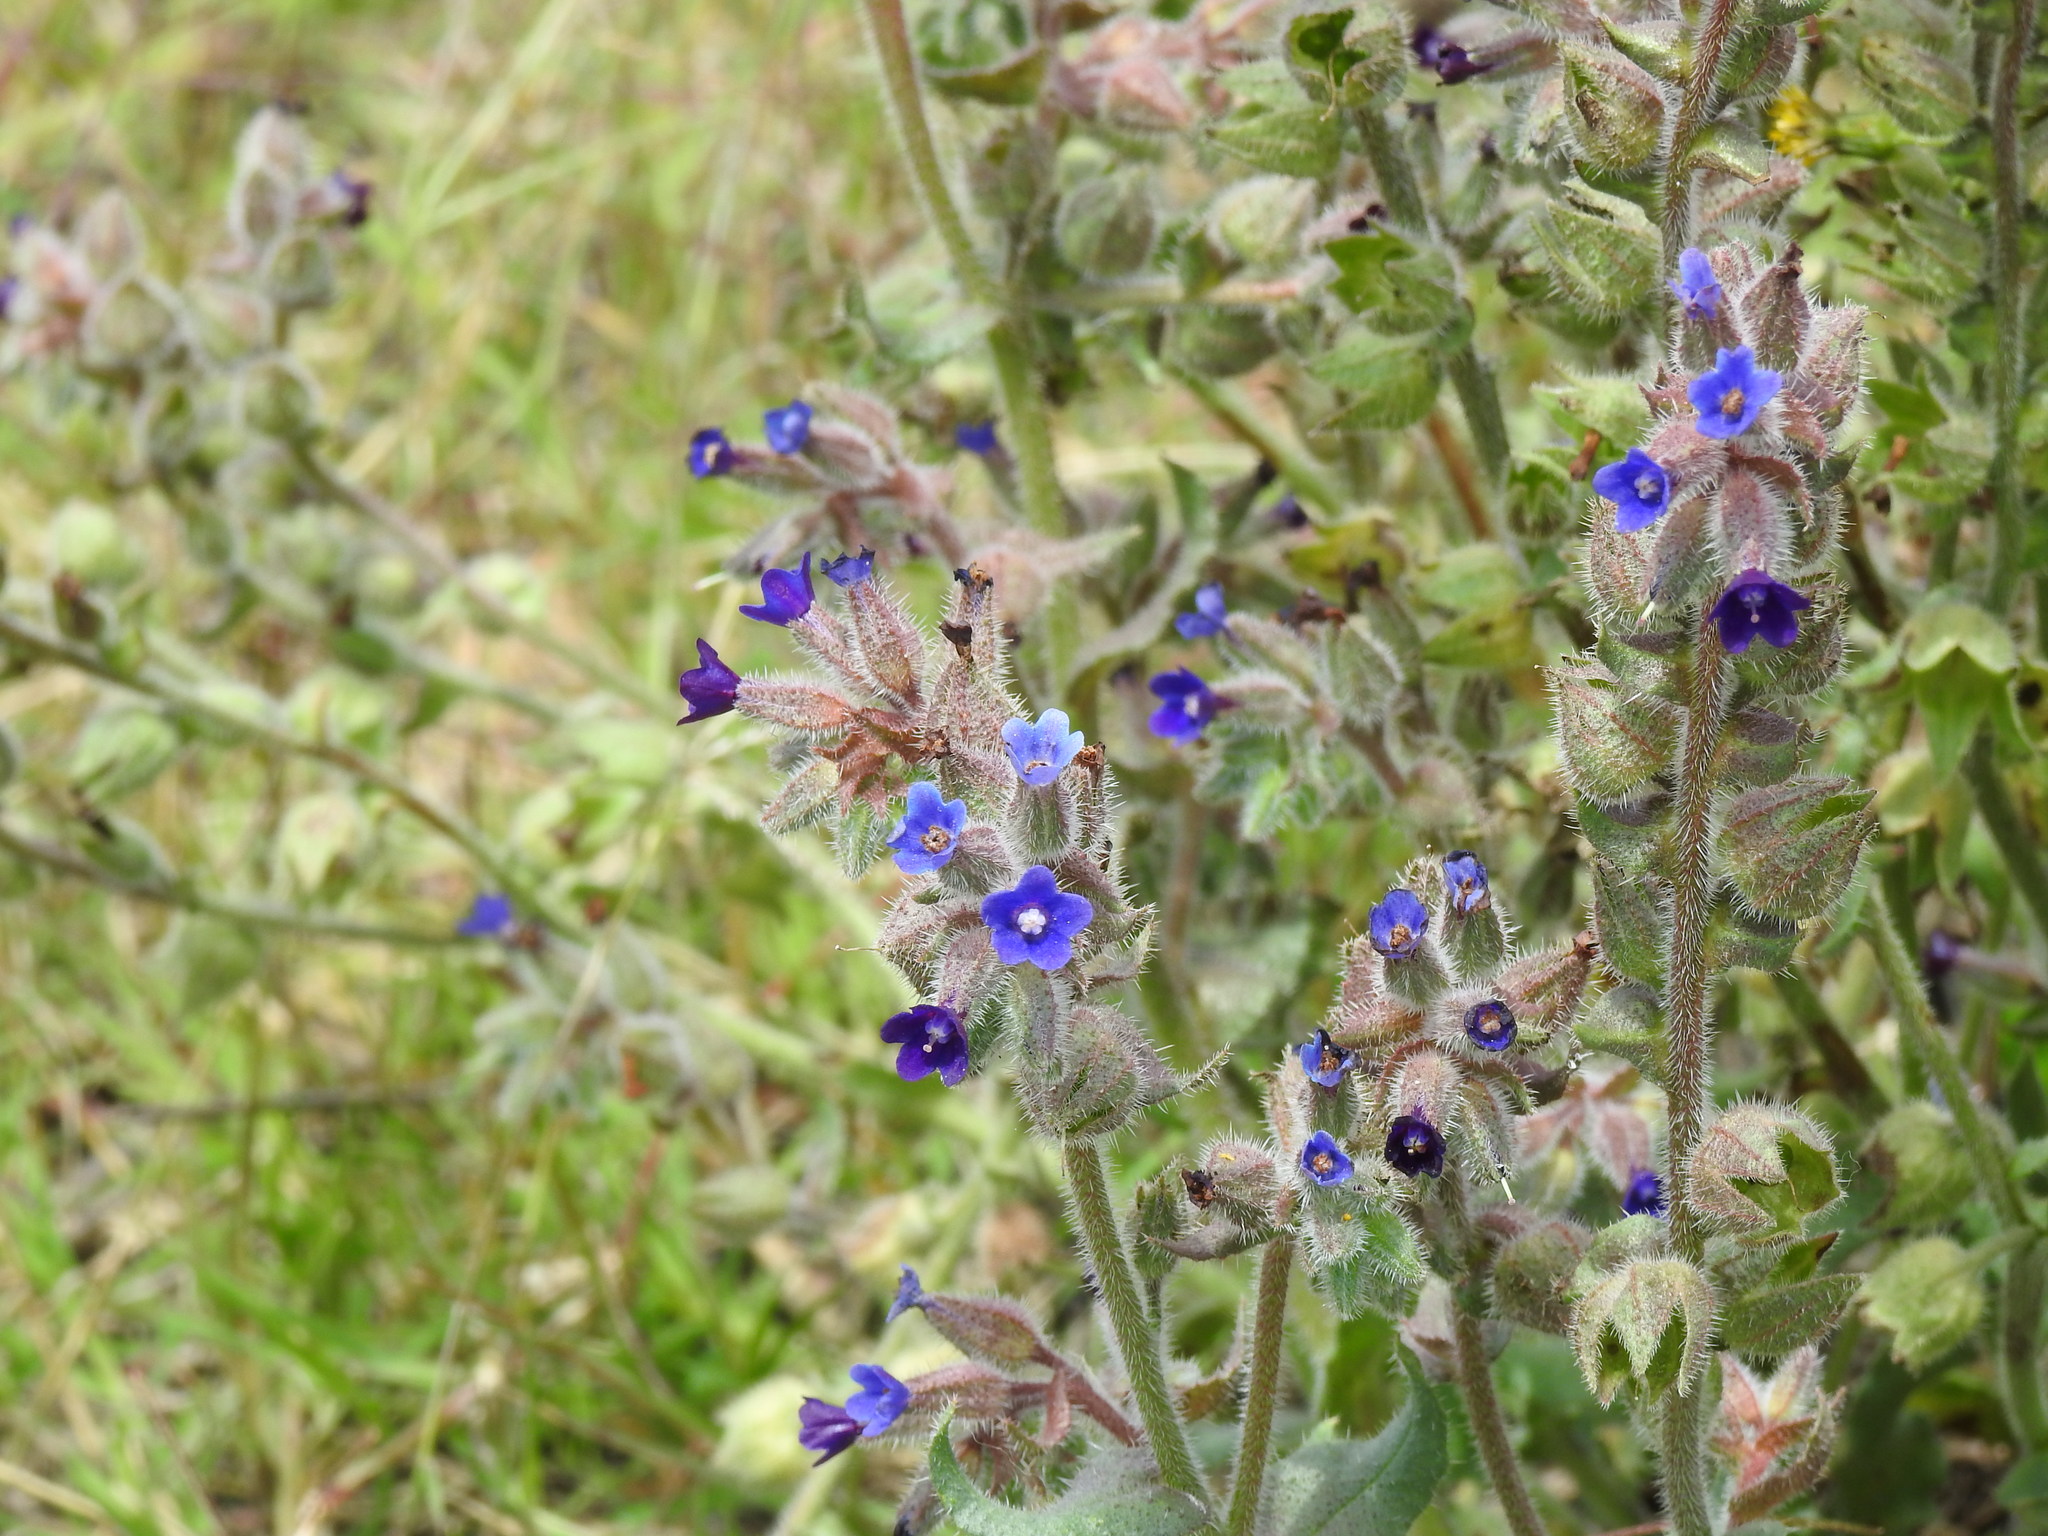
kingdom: Plantae
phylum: Tracheophyta
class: Magnoliopsida
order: Boraginales
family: Boraginaceae
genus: Anchusa
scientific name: Anchusa undulata
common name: Undulate alkanet
